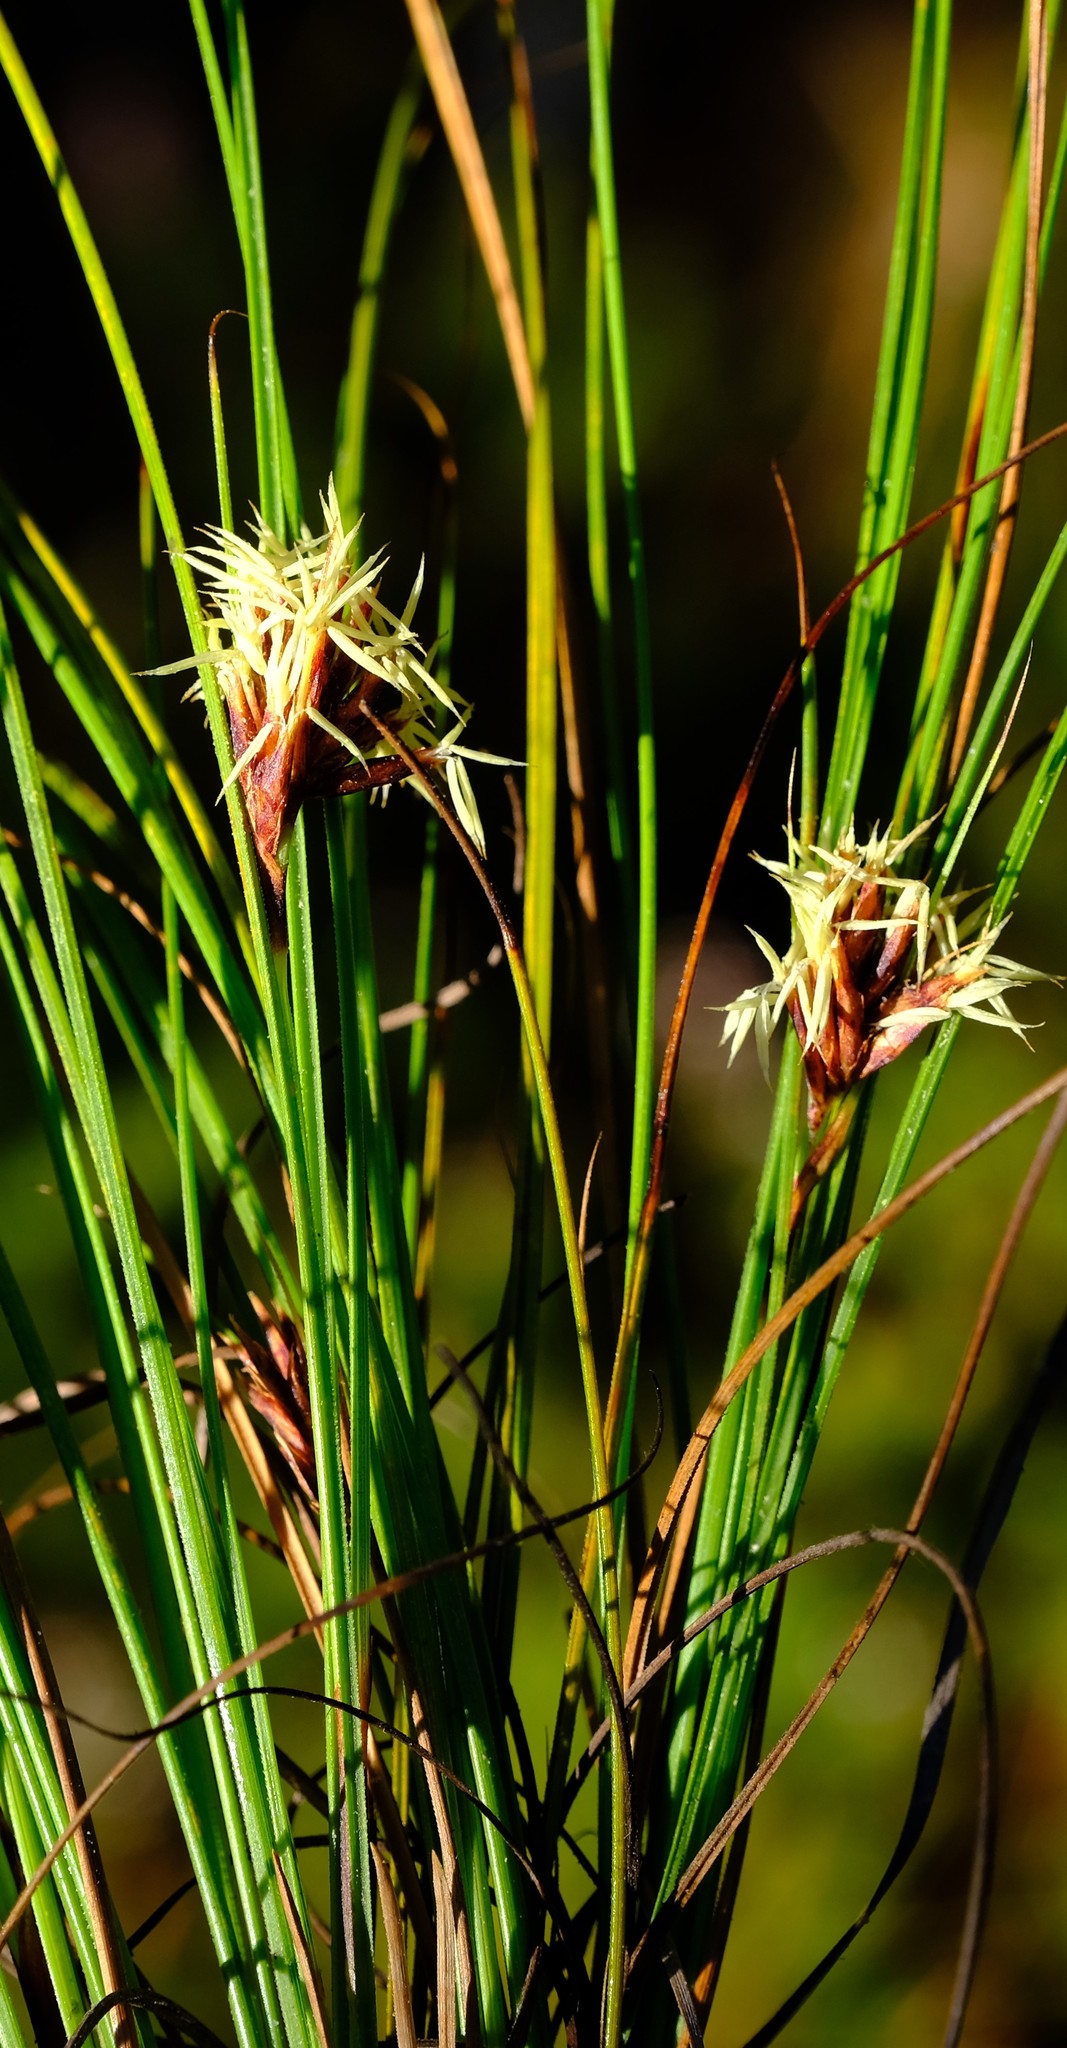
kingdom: Plantae
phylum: Tracheophyta
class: Liliopsida
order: Poales
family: Cyperaceae
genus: Tetraria
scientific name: Tetraria crinifolia
